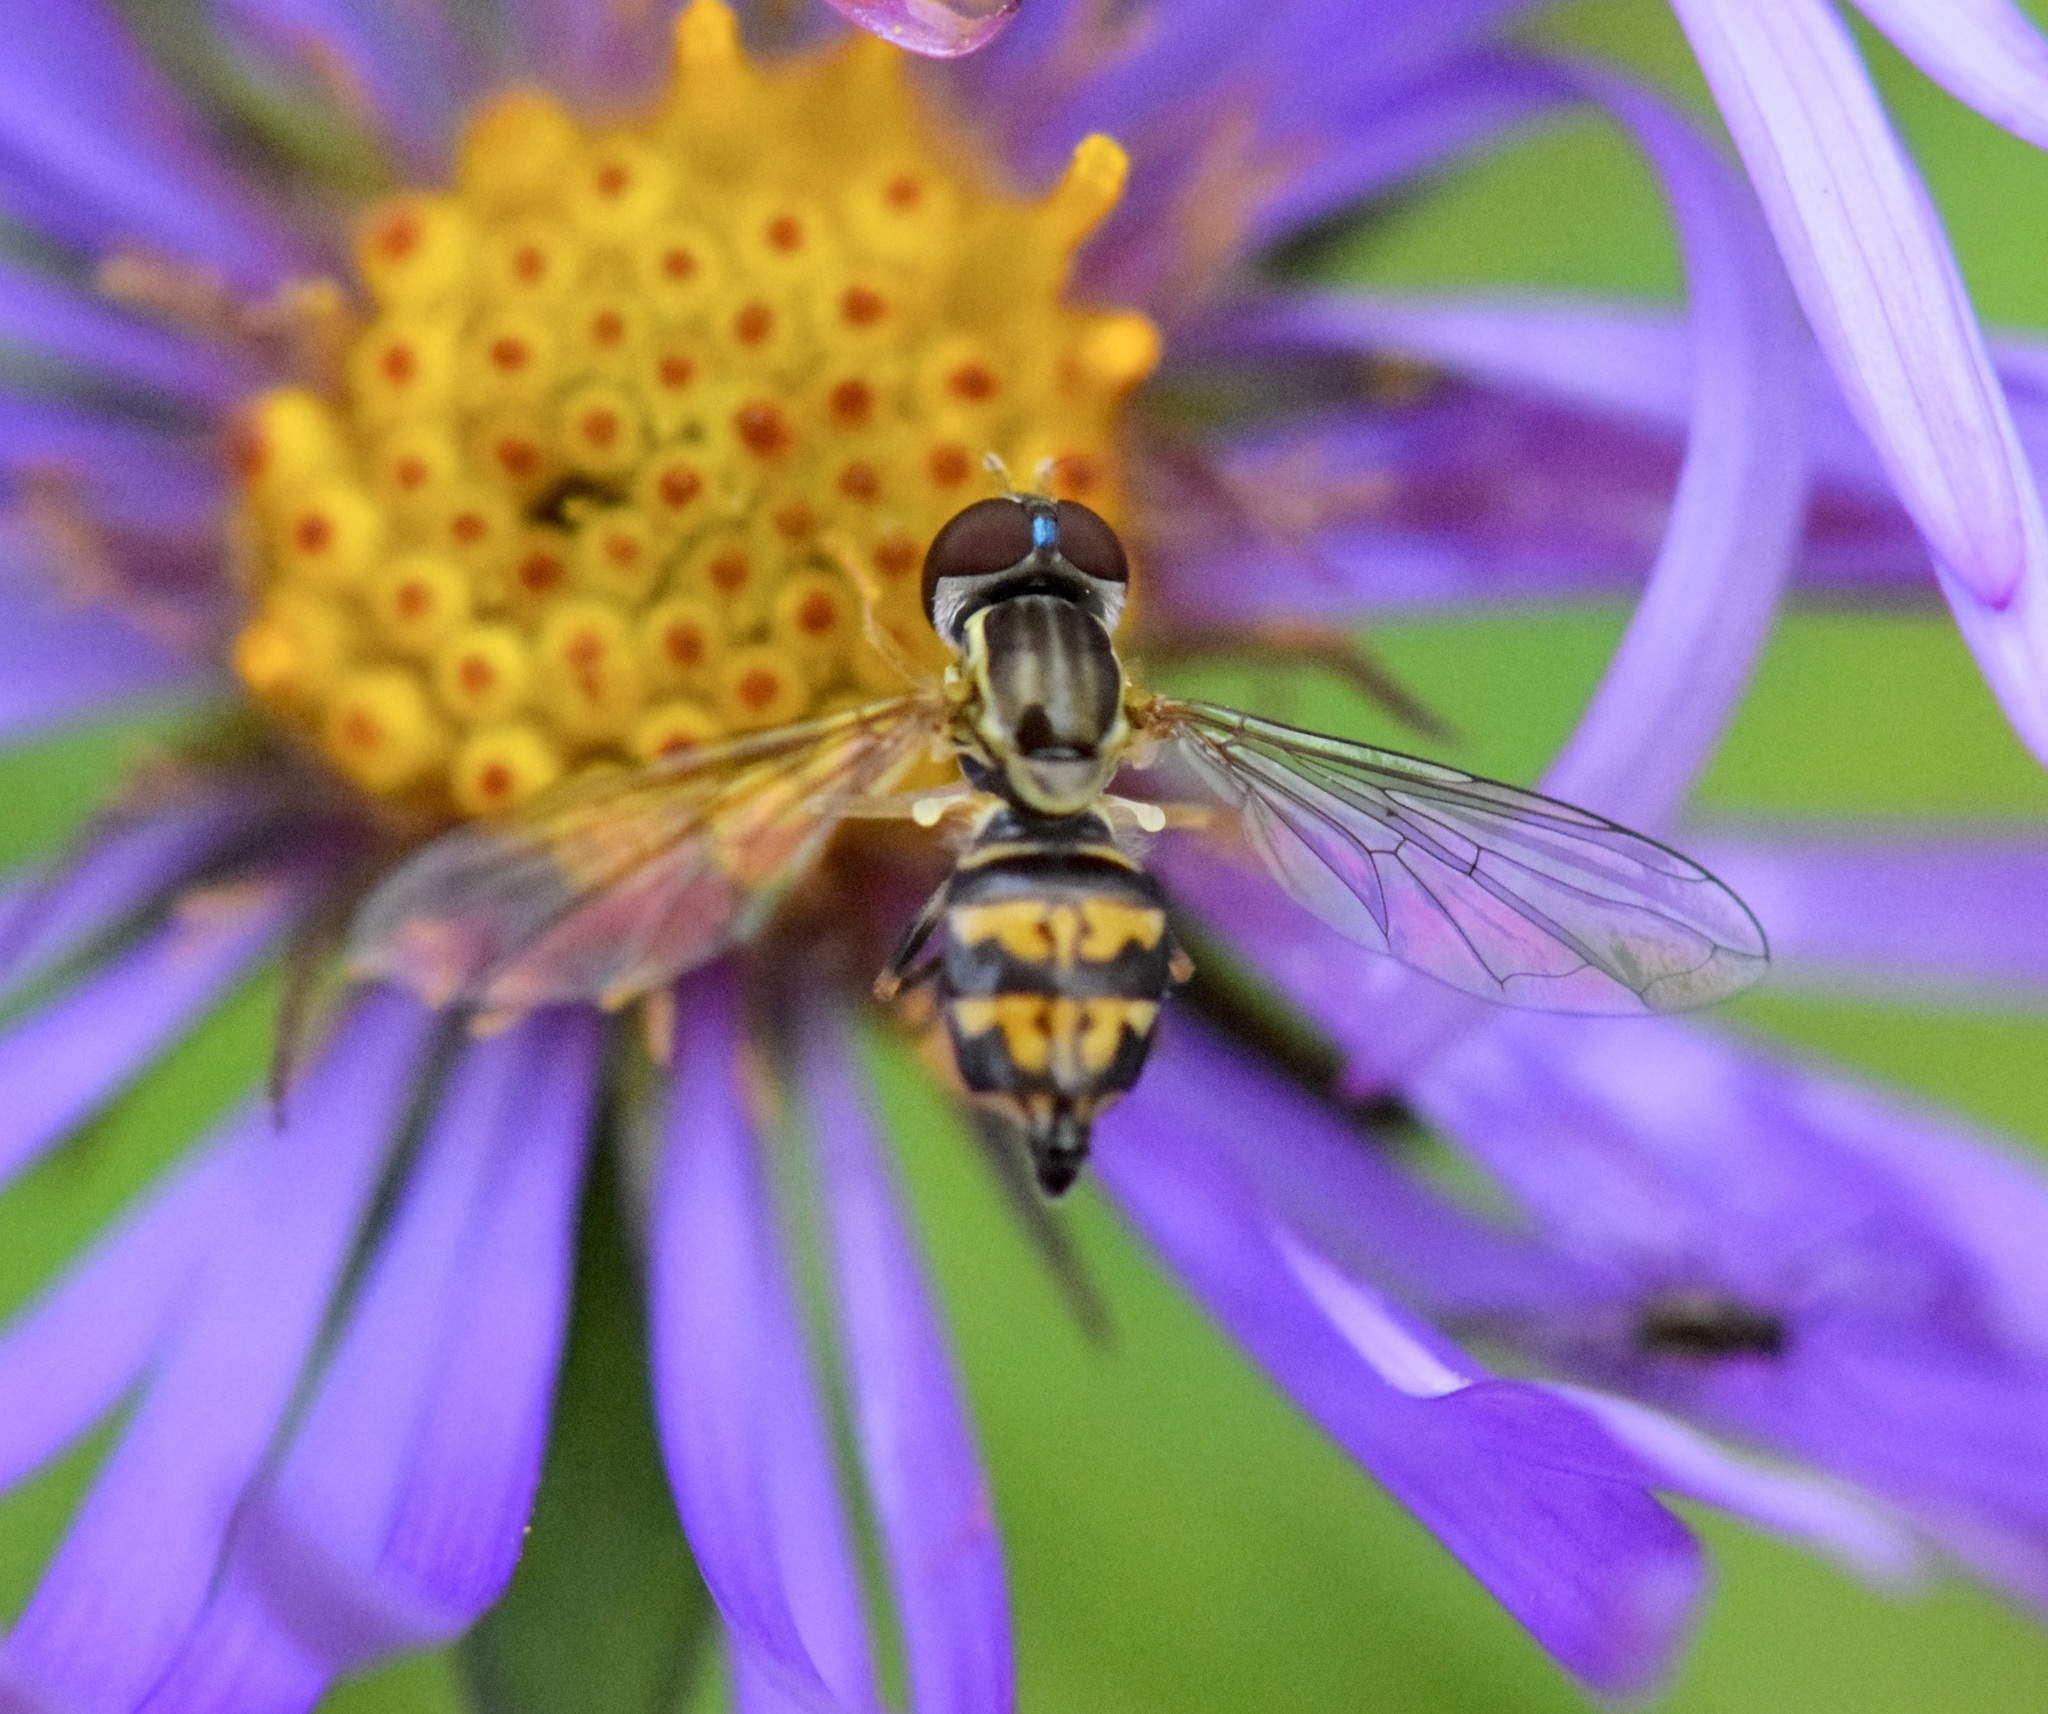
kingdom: Animalia
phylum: Arthropoda
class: Insecta
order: Diptera
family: Syrphidae
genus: Toxomerus
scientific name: Toxomerus geminatus
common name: Eastern calligrapher
